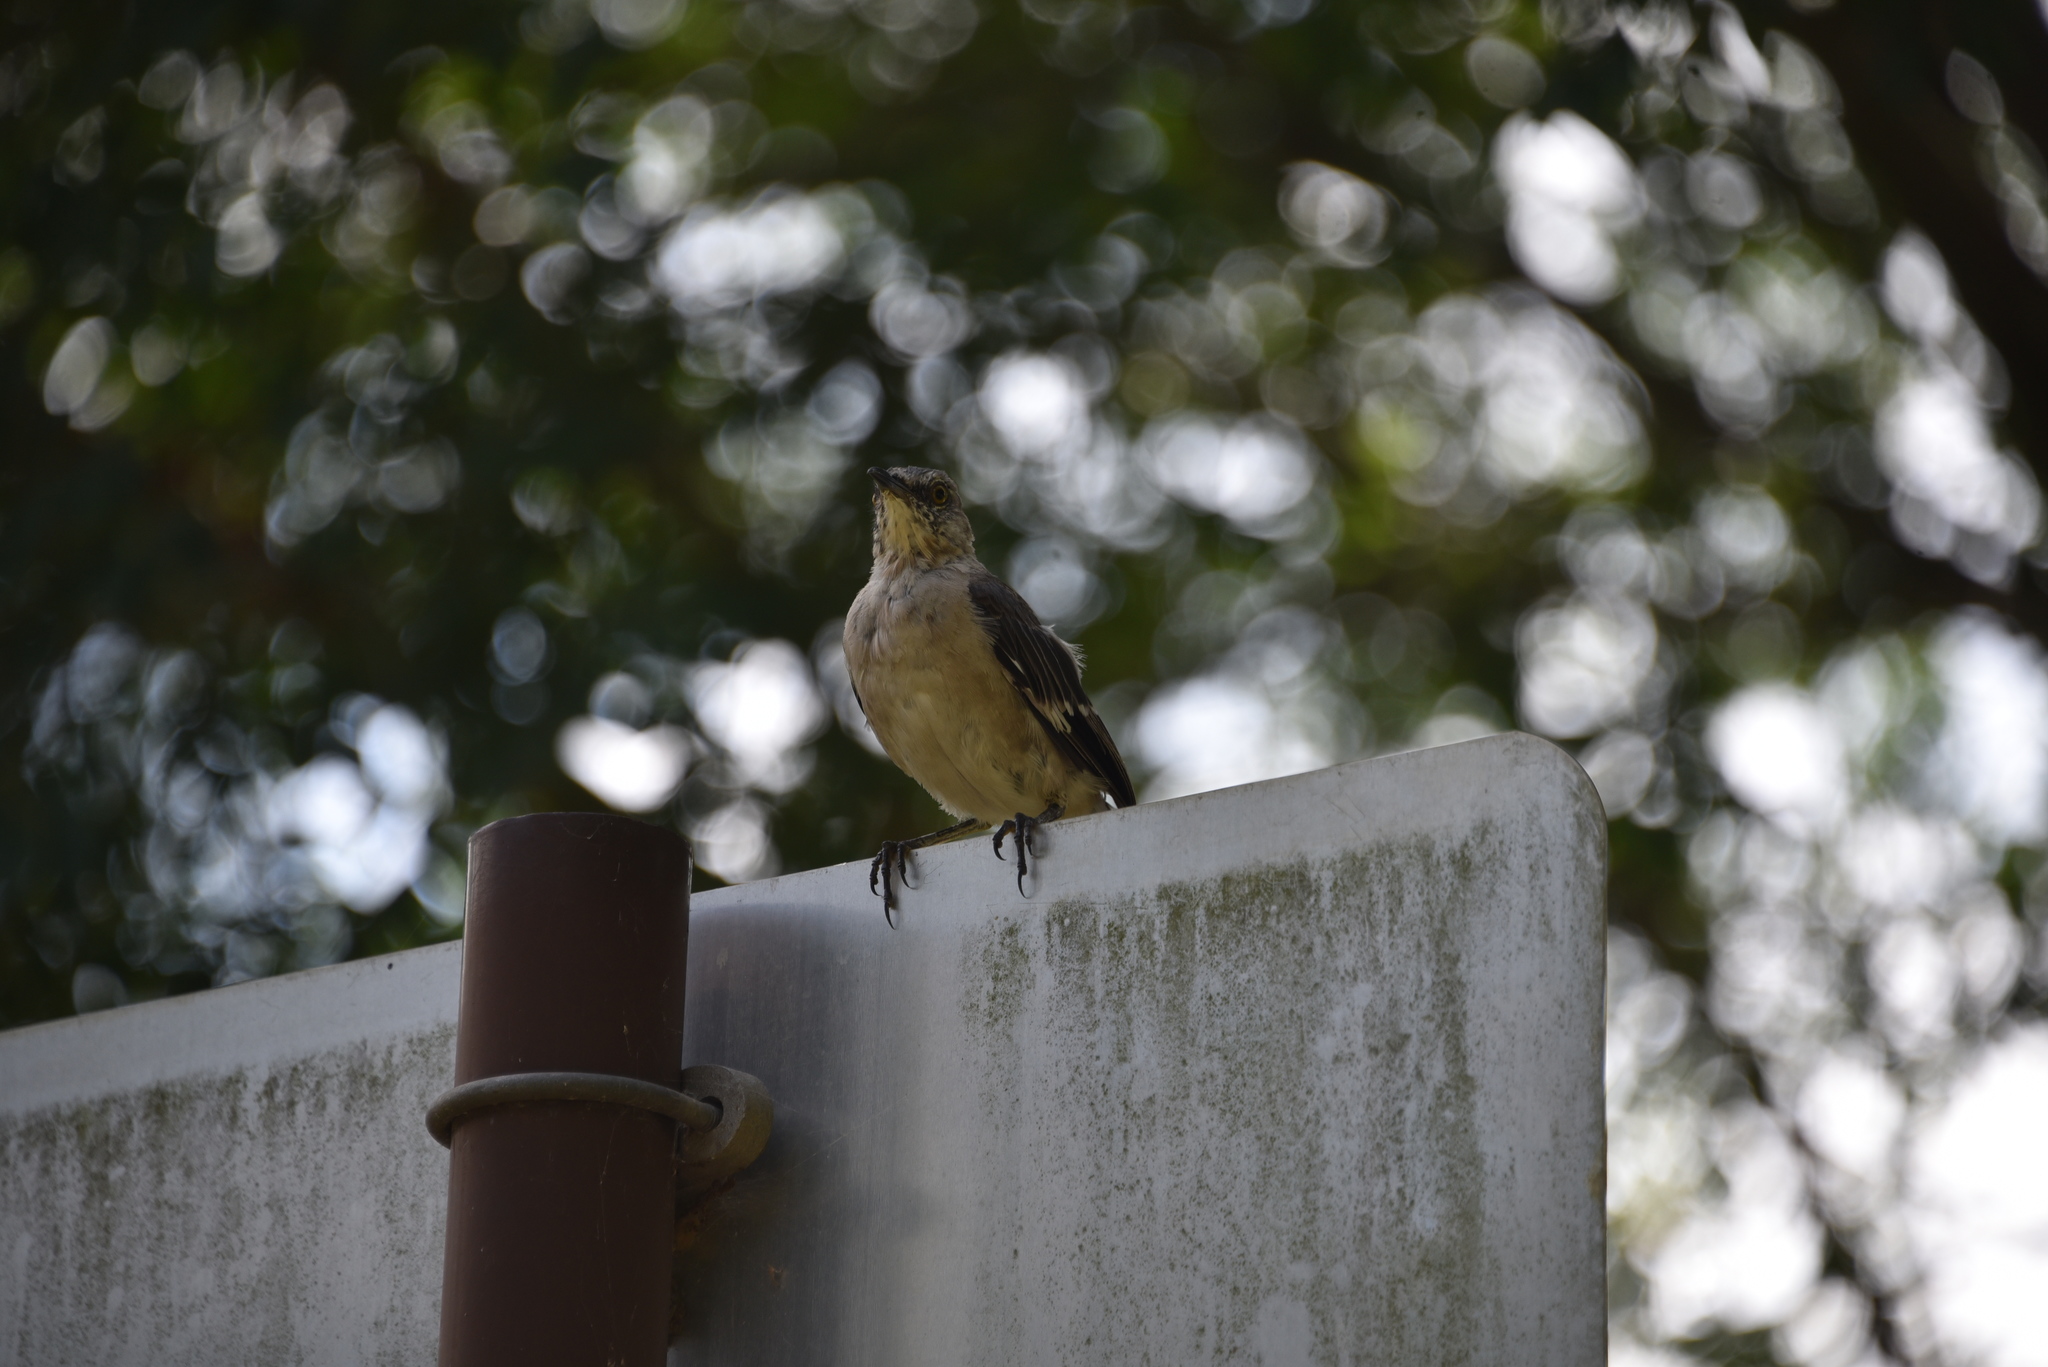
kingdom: Animalia
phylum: Chordata
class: Aves
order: Passeriformes
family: Mimidae
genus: Mimus
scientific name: Mimus polyglottos
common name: Northern mockingbird
